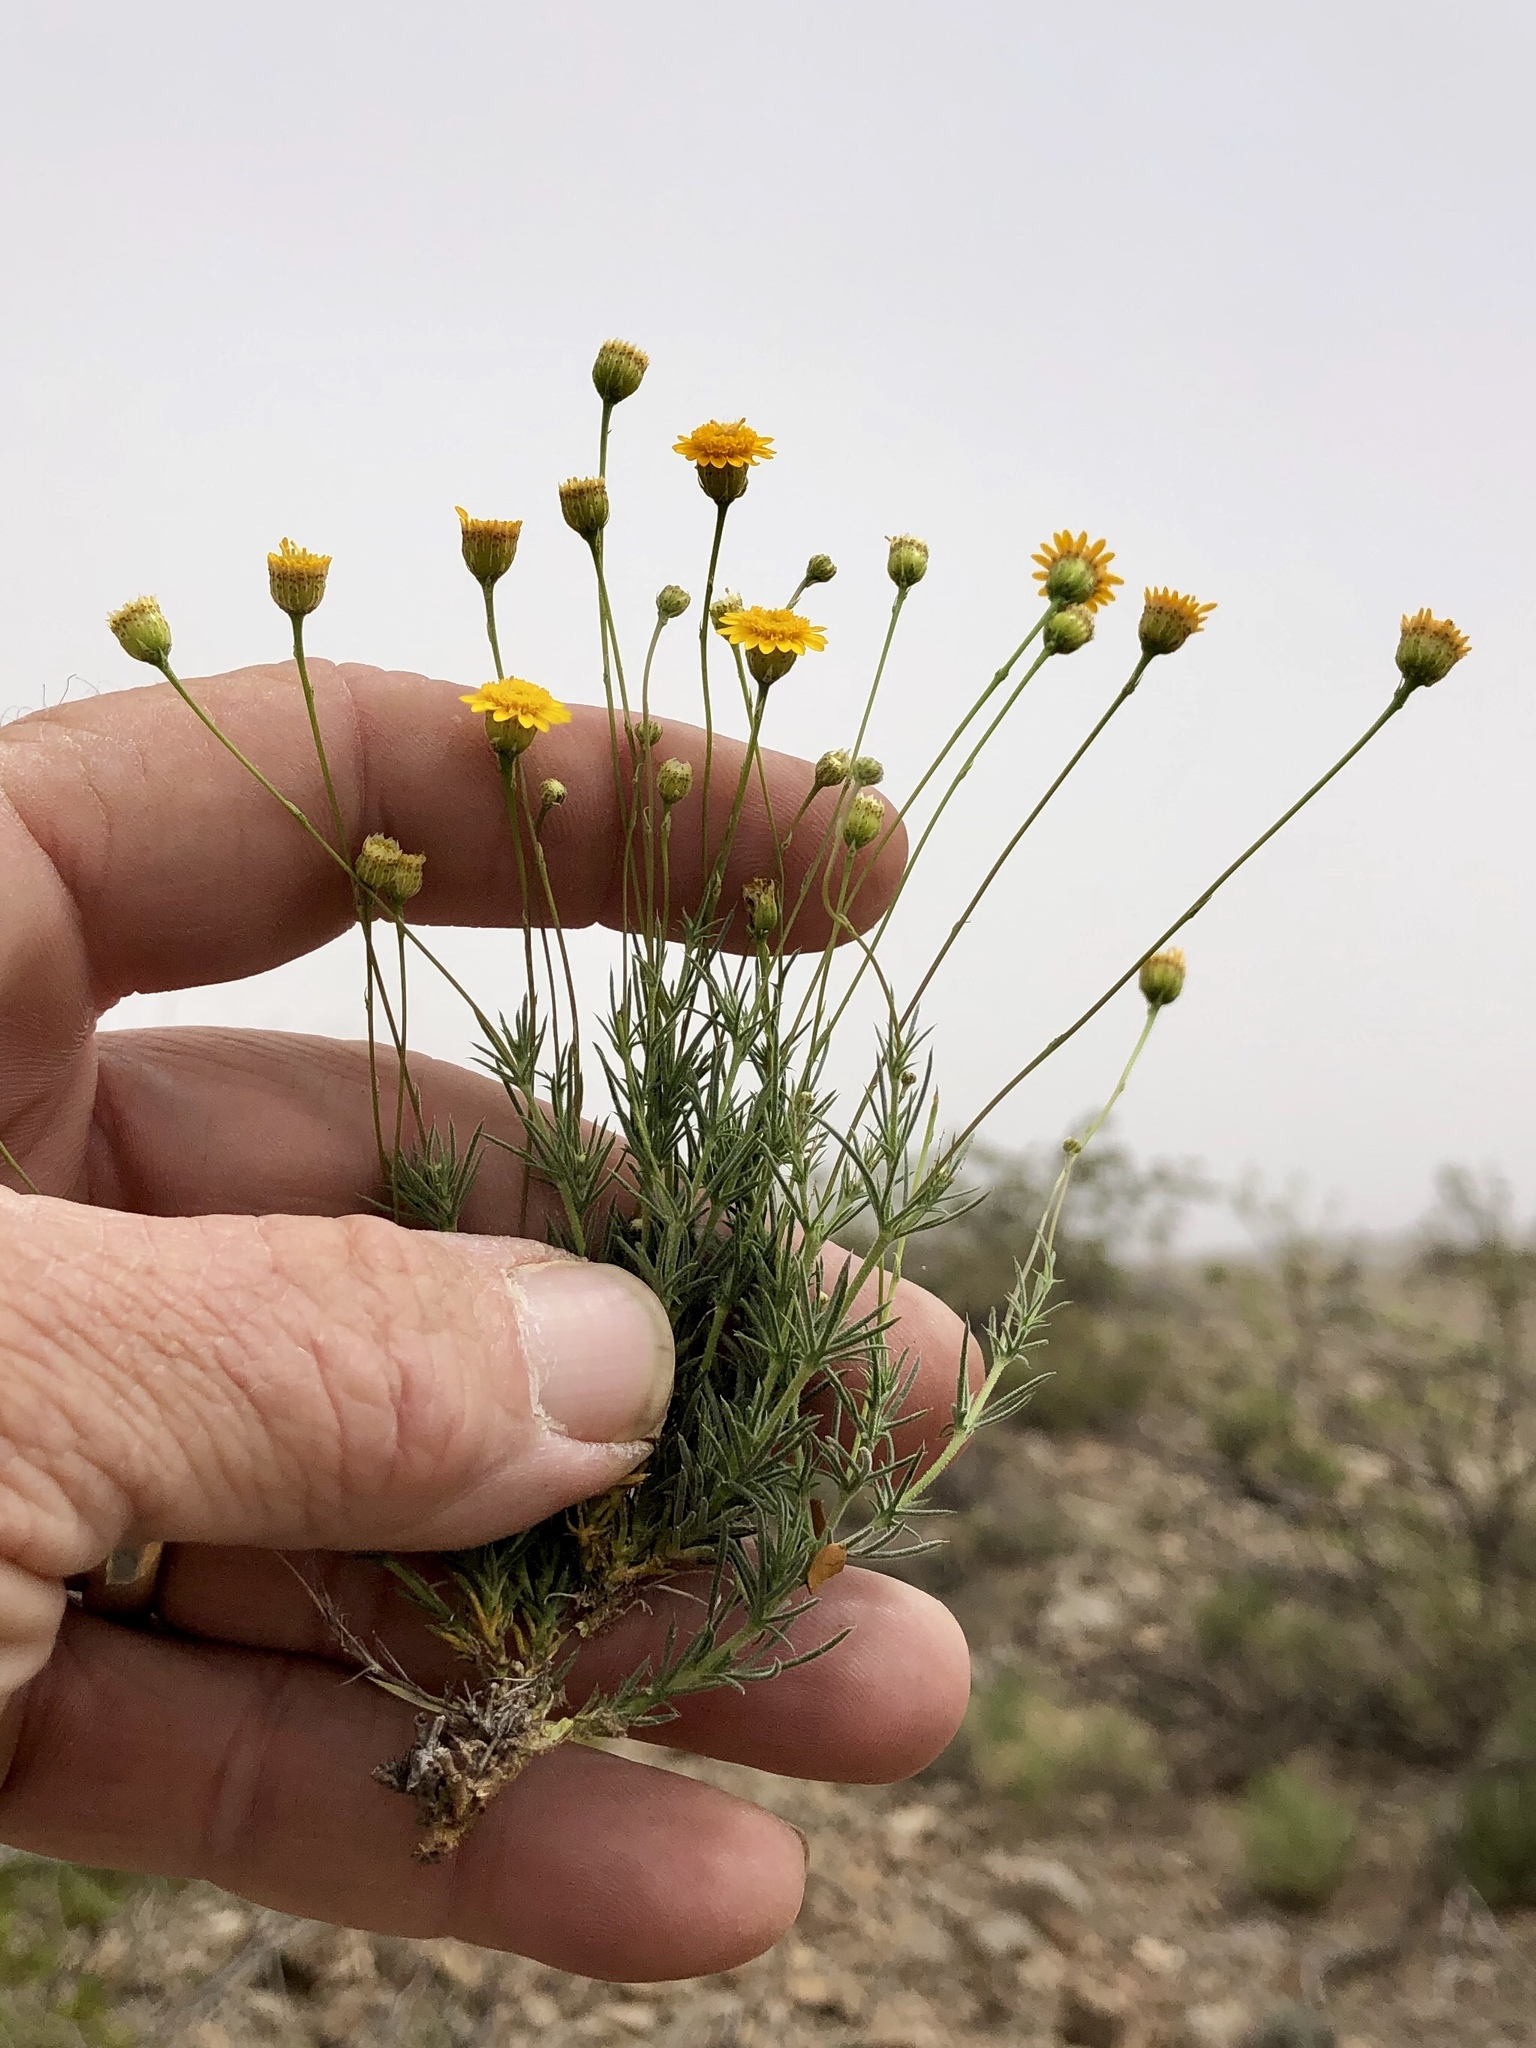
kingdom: Plantae
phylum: Tracheophyta
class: Magnoliopsida
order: Asterales
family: Asteraceae
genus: Thymophylla
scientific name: Thymophylla pentachaeta
